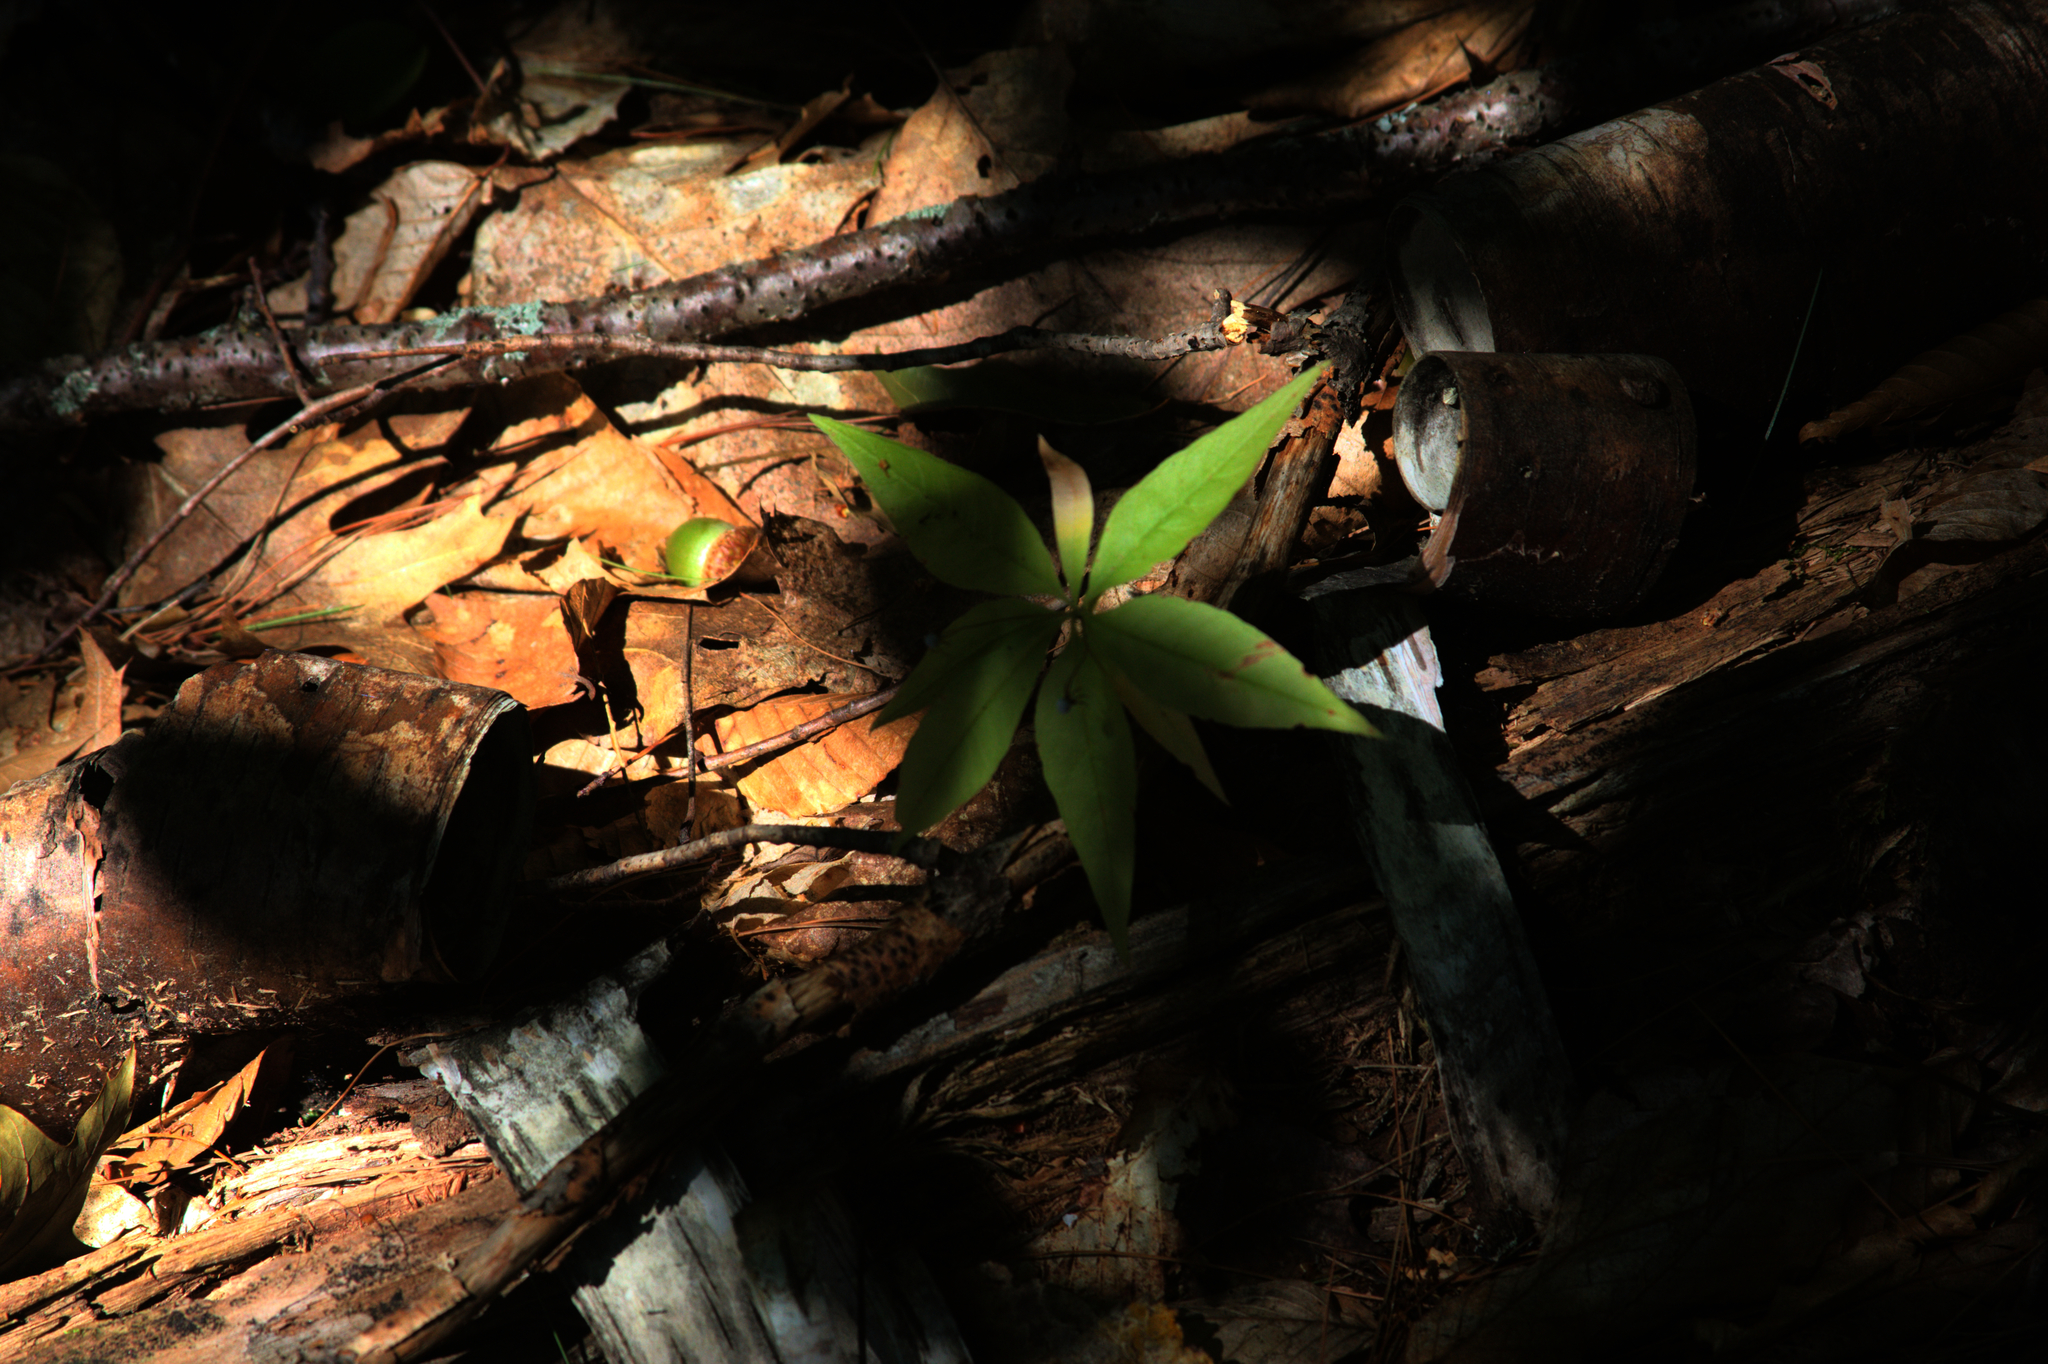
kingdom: Plantae
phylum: Tracheophyta
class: Magnoliopsida
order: Ericales
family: Primulaceae
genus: Lysimachia
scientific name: Lysimachia borealis
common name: American starflower
